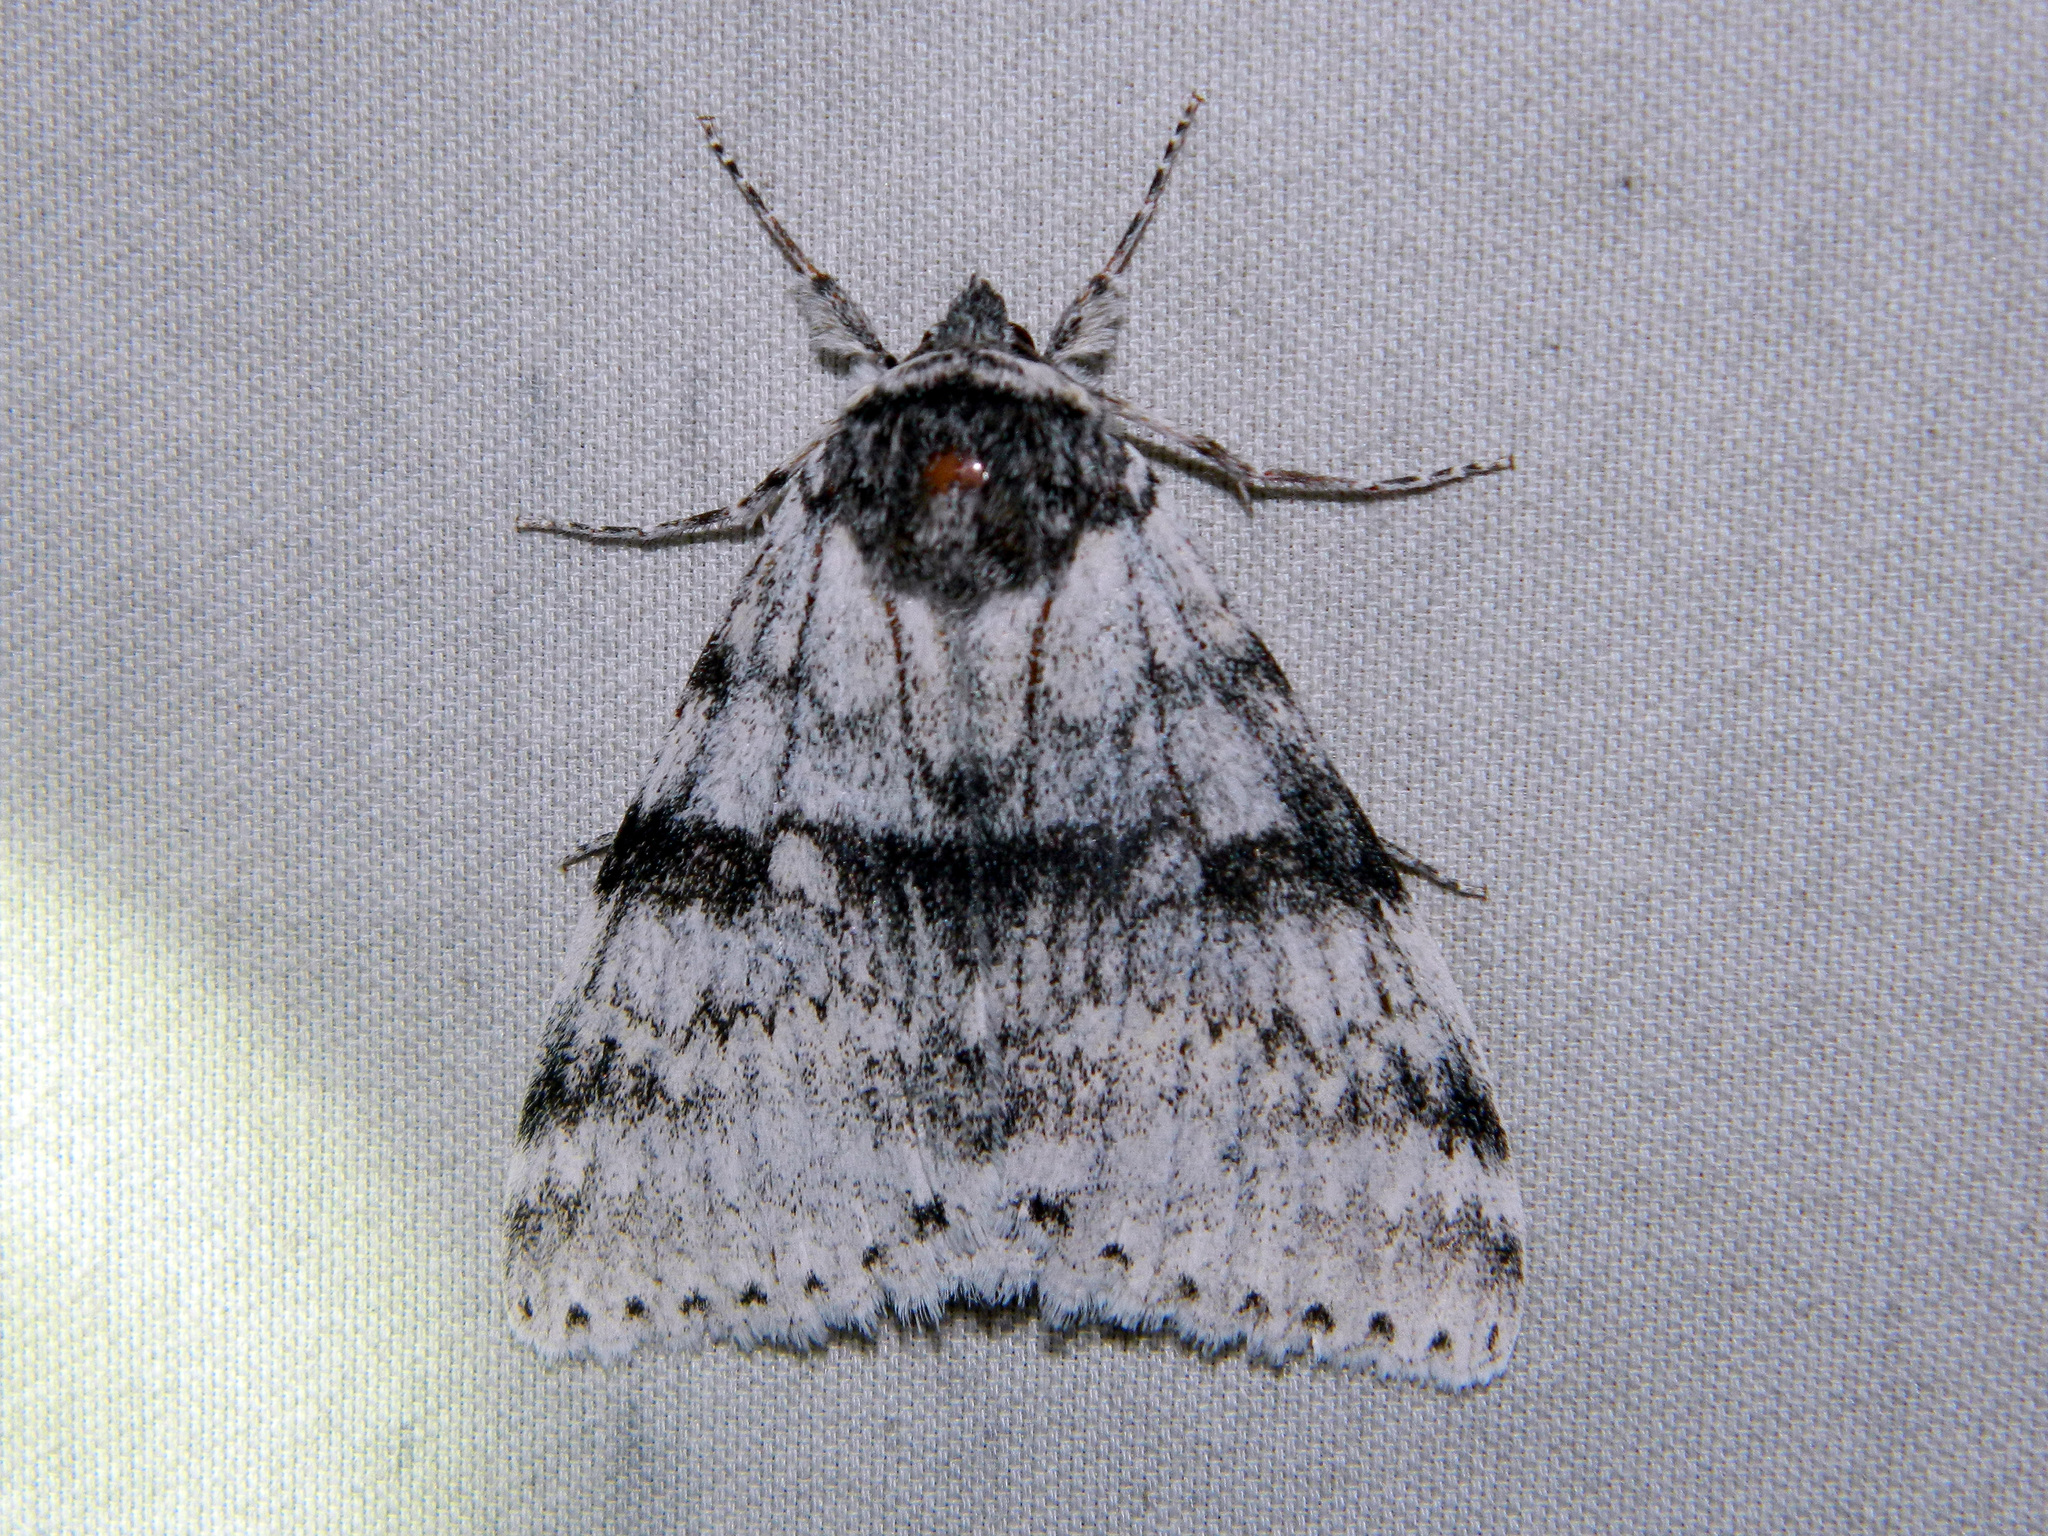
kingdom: Animalia
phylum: Arthropoda
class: Insecta
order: Lepidoptera
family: Erebidae
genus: Catocala
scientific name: Catocala relicta
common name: White underwing
